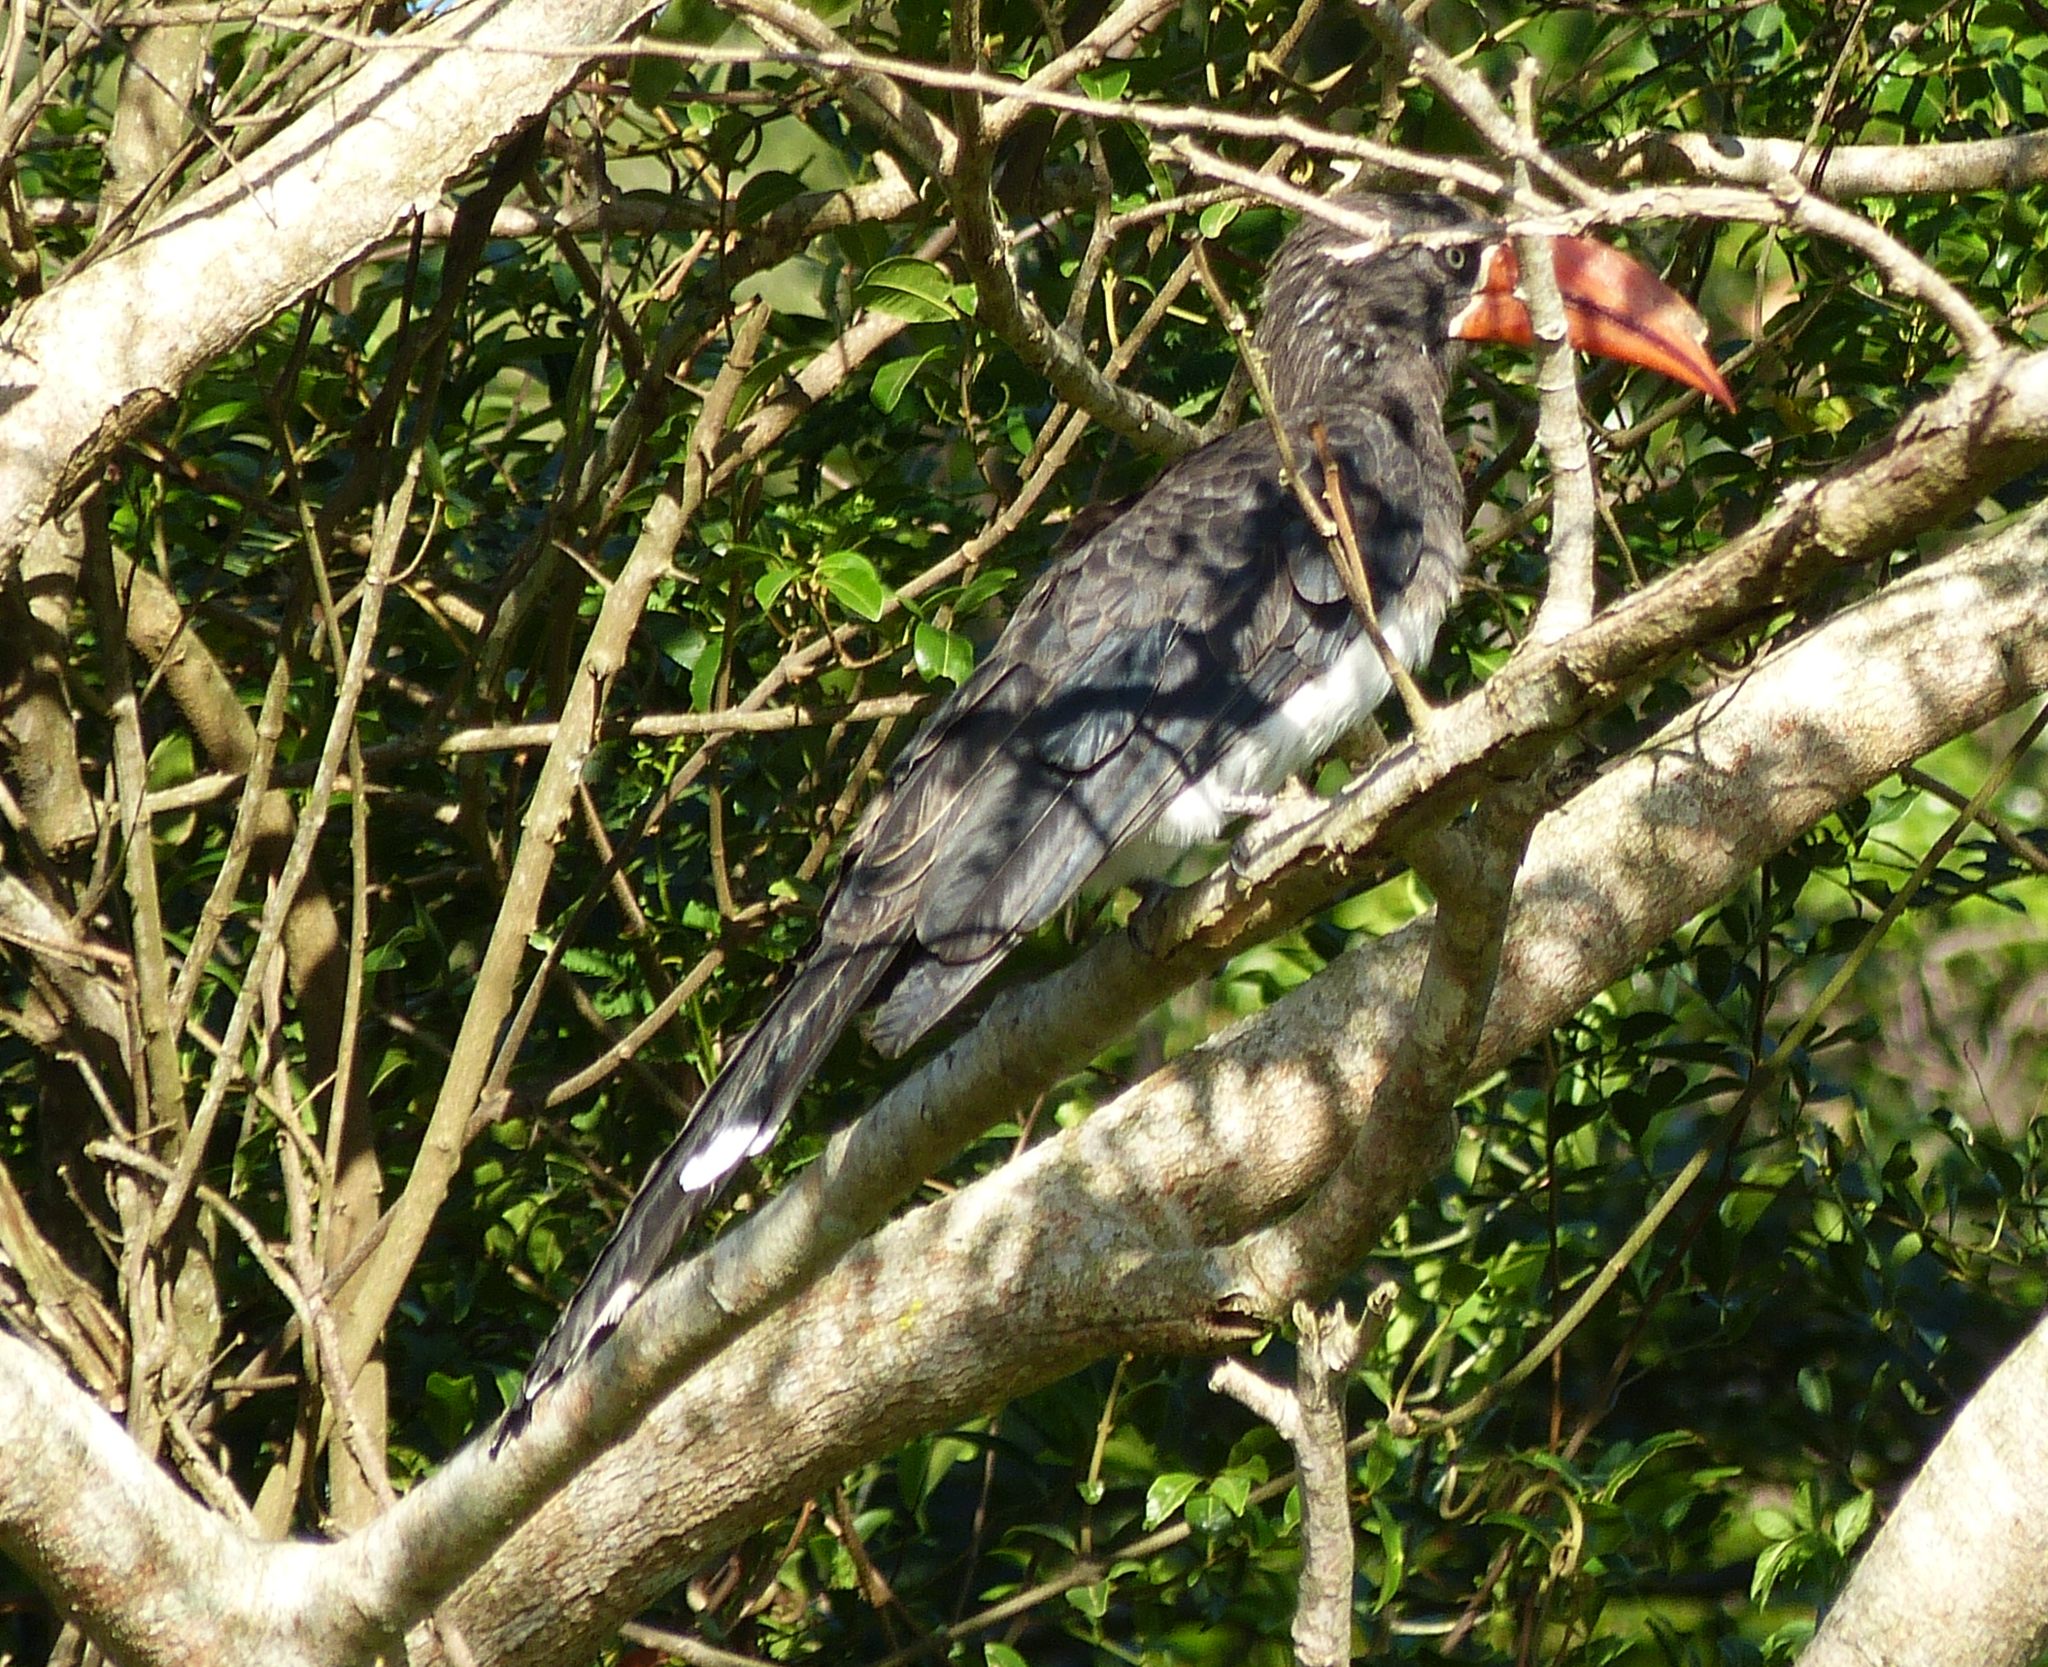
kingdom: Animalia
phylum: Chordata
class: Aves
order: Bucerotiformes
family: Bucerotidae
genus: Lophoceros
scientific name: Lophoceros alboterminatus
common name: Crowned hornbill
